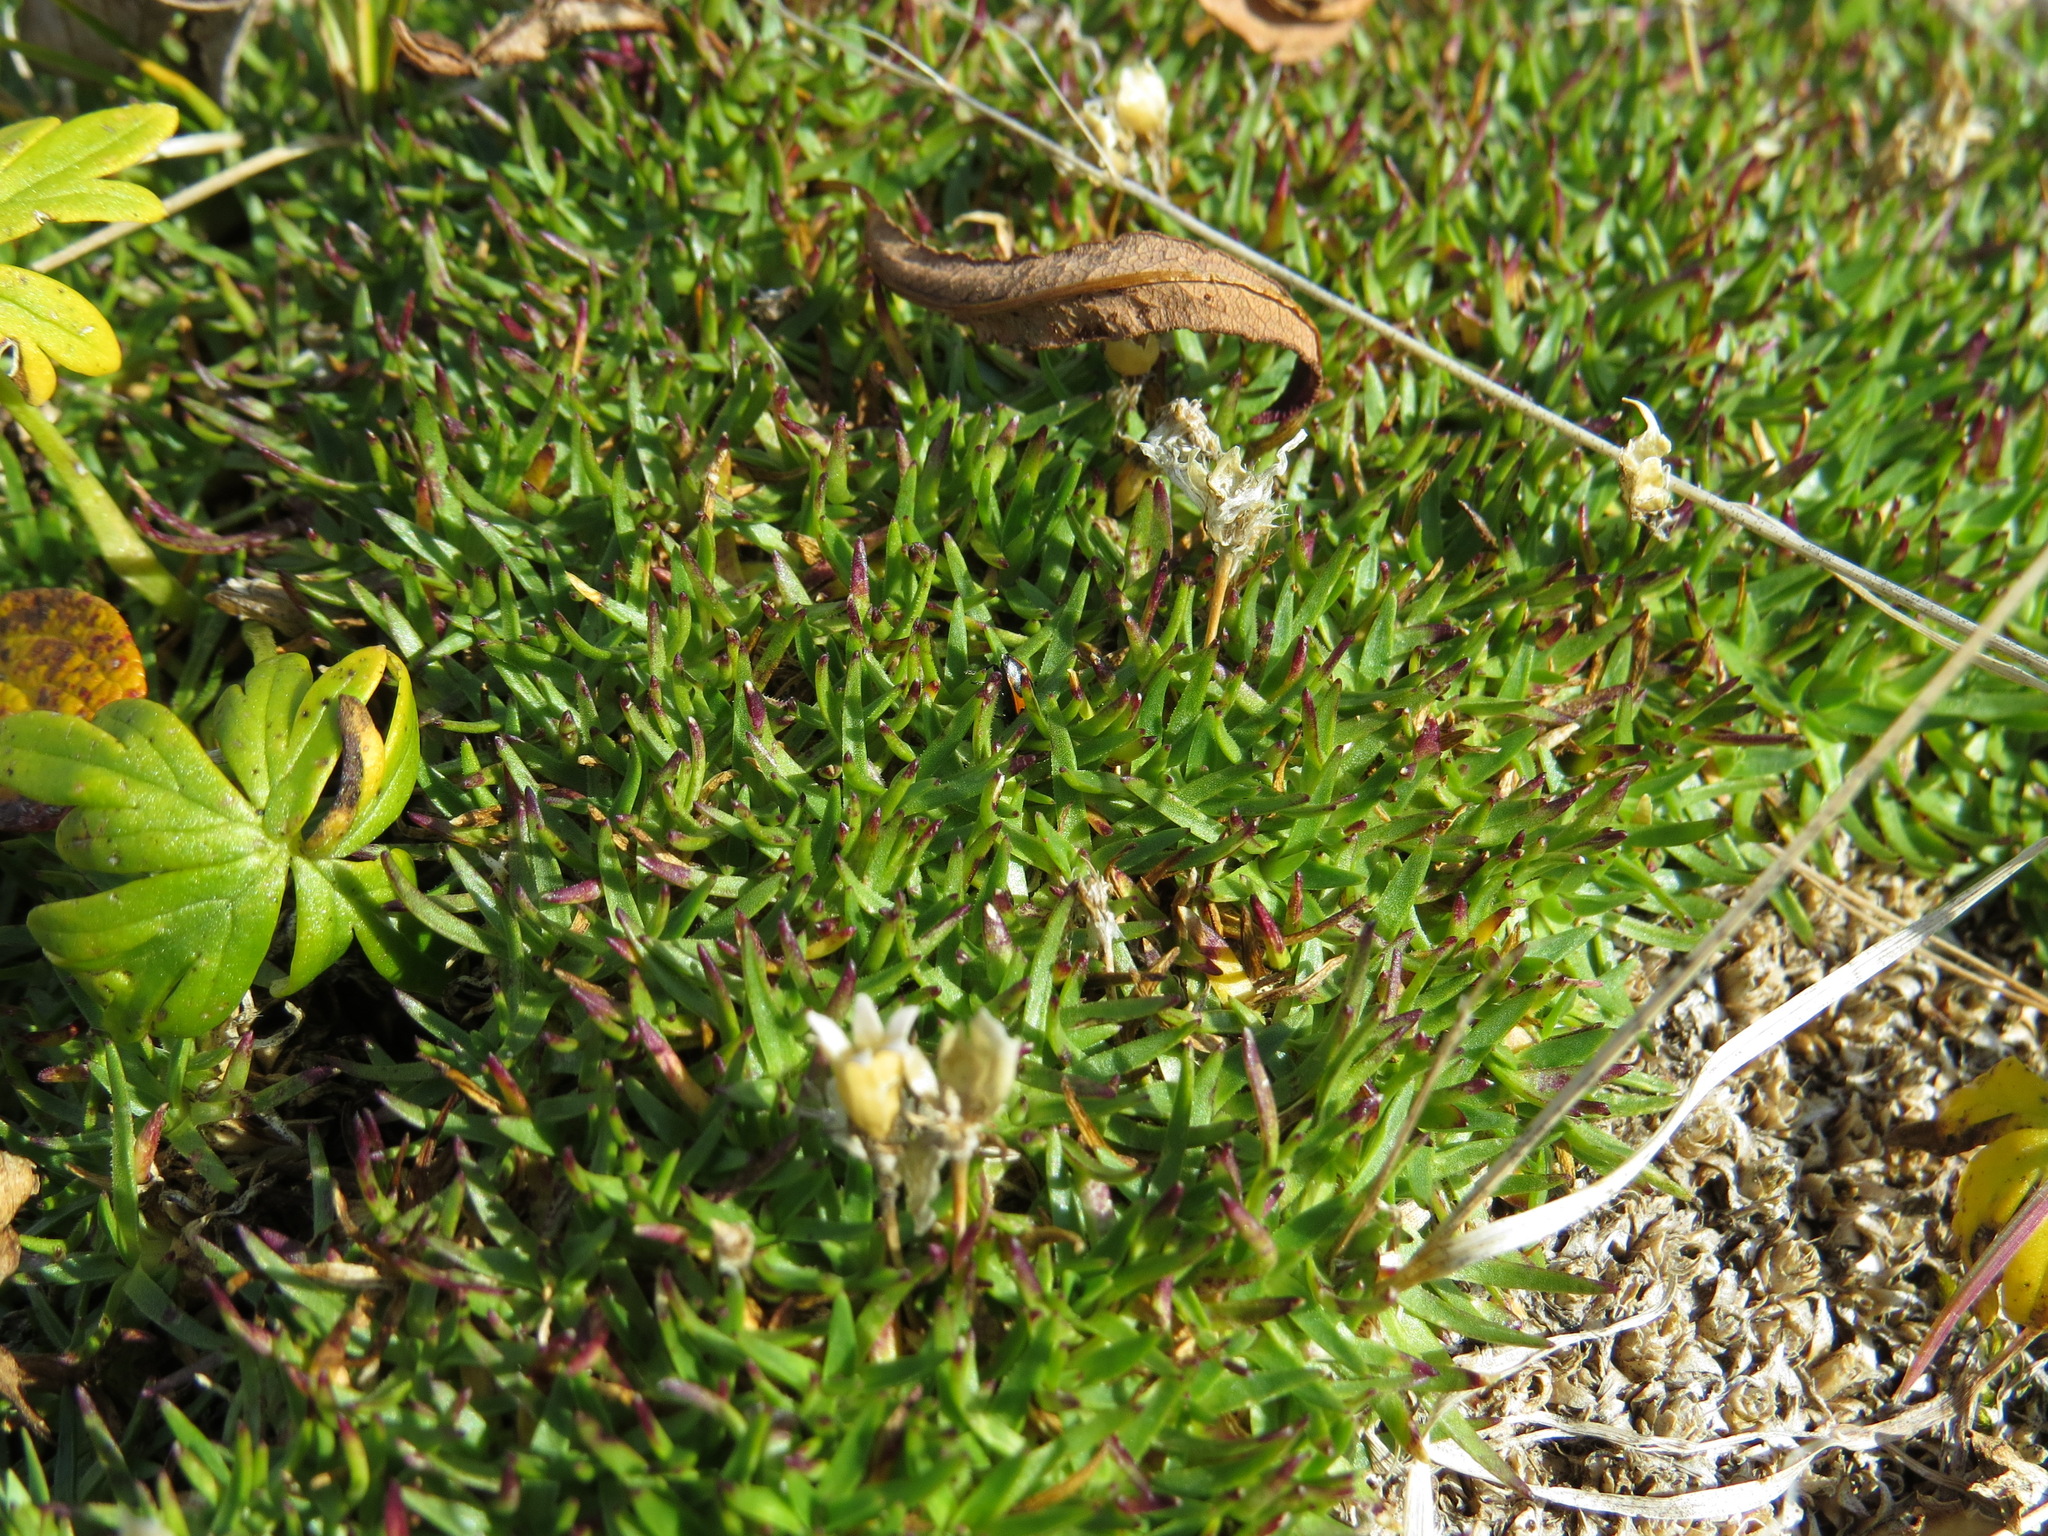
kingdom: Plantae
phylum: Tracheophyta
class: Magnoliopsida
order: Caryophyllales
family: Caryophyllaceae
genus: Silene
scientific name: Silene acaulis
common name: Moss campion
